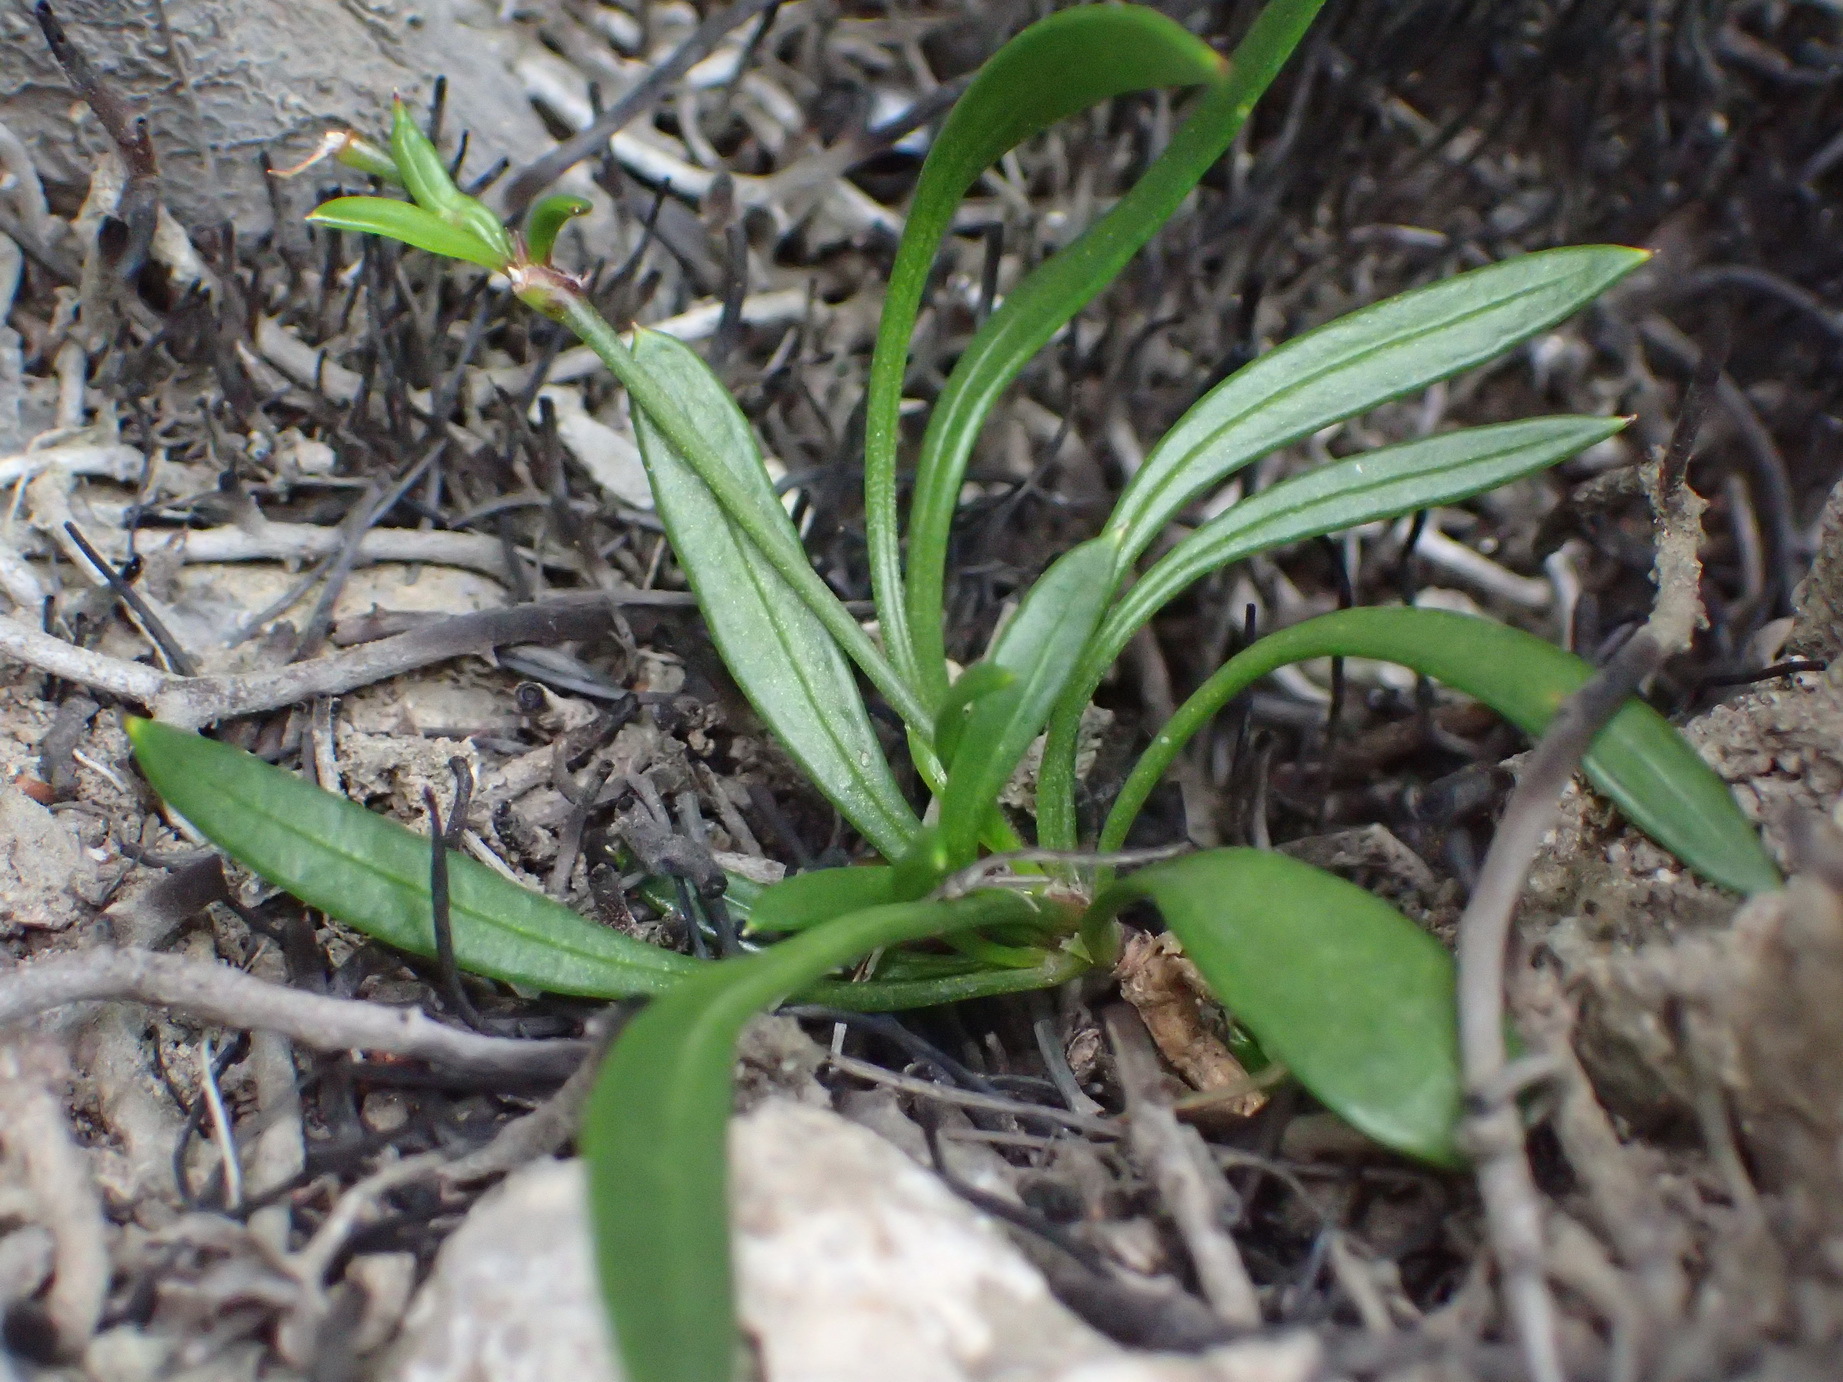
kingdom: Plantae
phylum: Tracheophyta
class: Magnoliopsida
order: Apiales
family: Apiaceae
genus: Centella
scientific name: Centella sessilis
